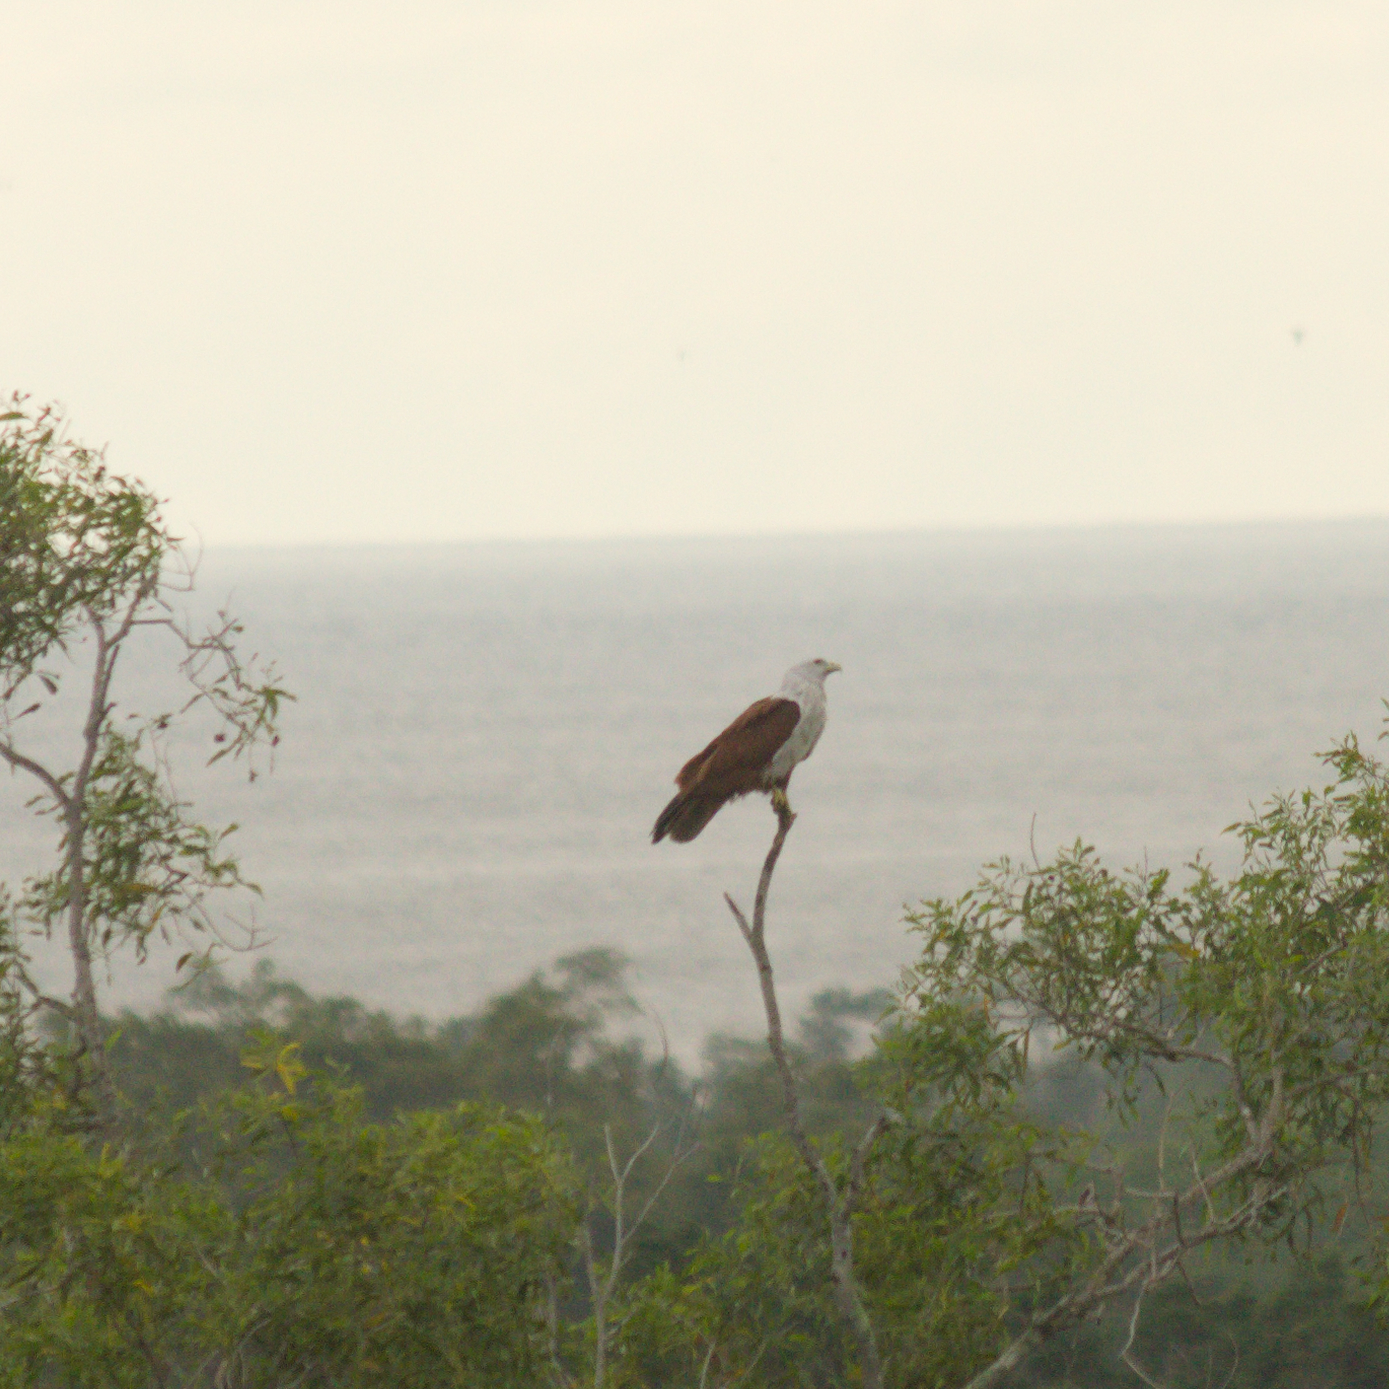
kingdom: Animalia
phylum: Chordata
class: Aves
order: Accipitriformes
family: Accipitridae
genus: Haliastur
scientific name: Haliastur indus
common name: Brahminy kite
